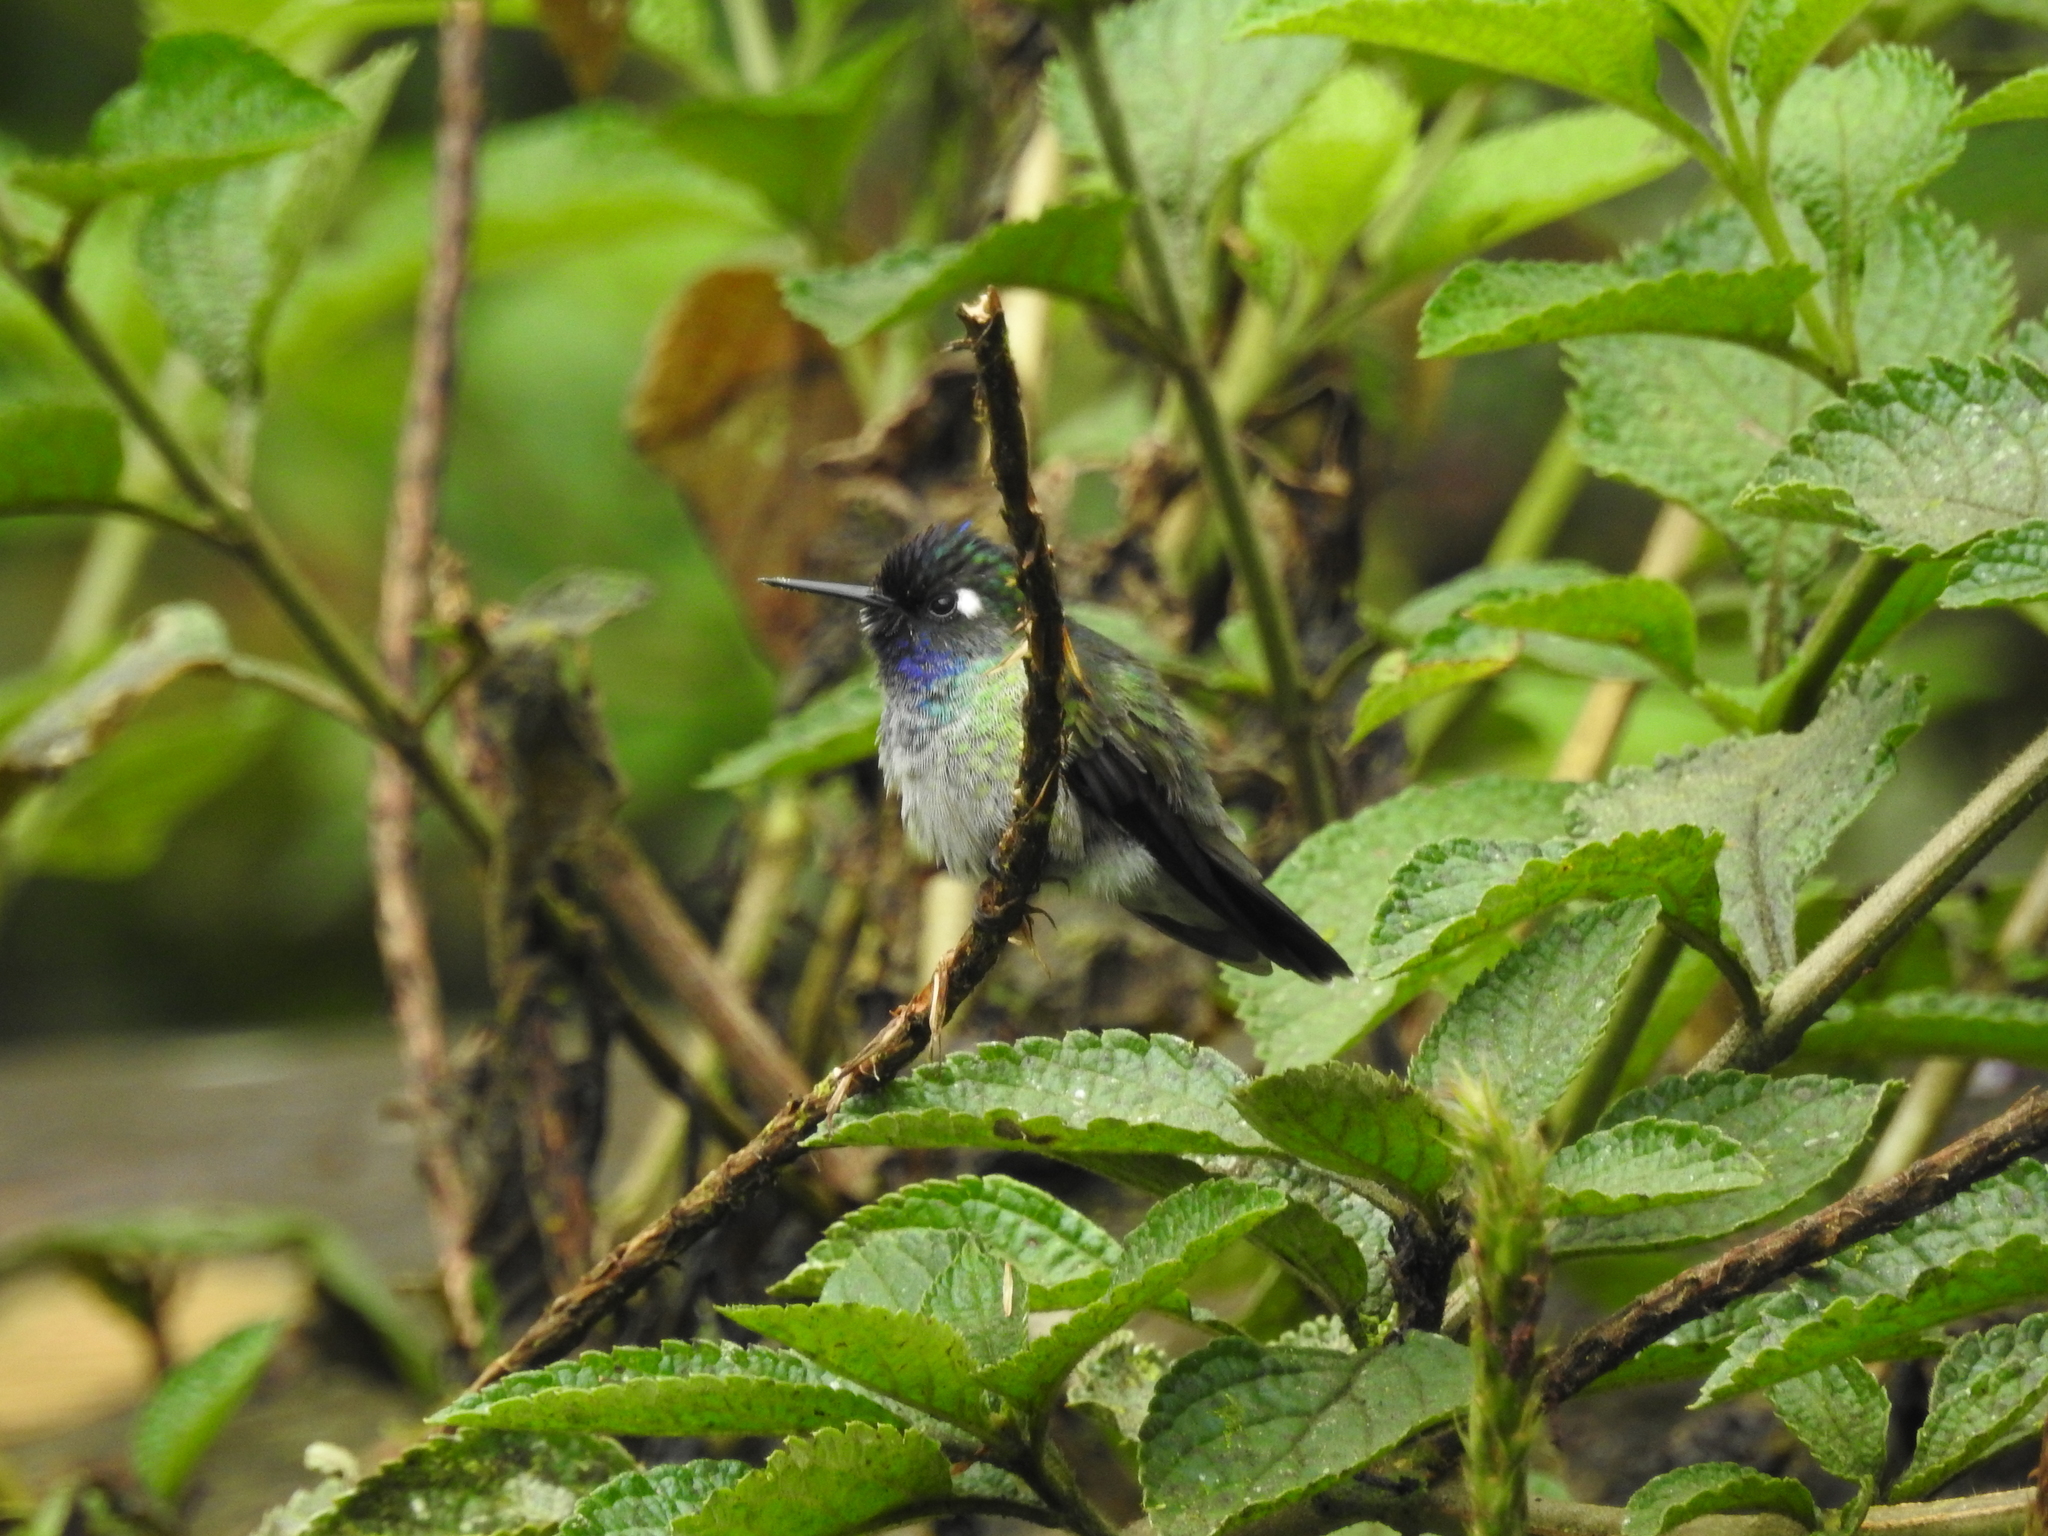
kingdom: Animalia
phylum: Chordata
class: Aves
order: Apodiformes
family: Trochilidae
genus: Klais
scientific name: Klais guimeti
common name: Violet-headed hummingbird
